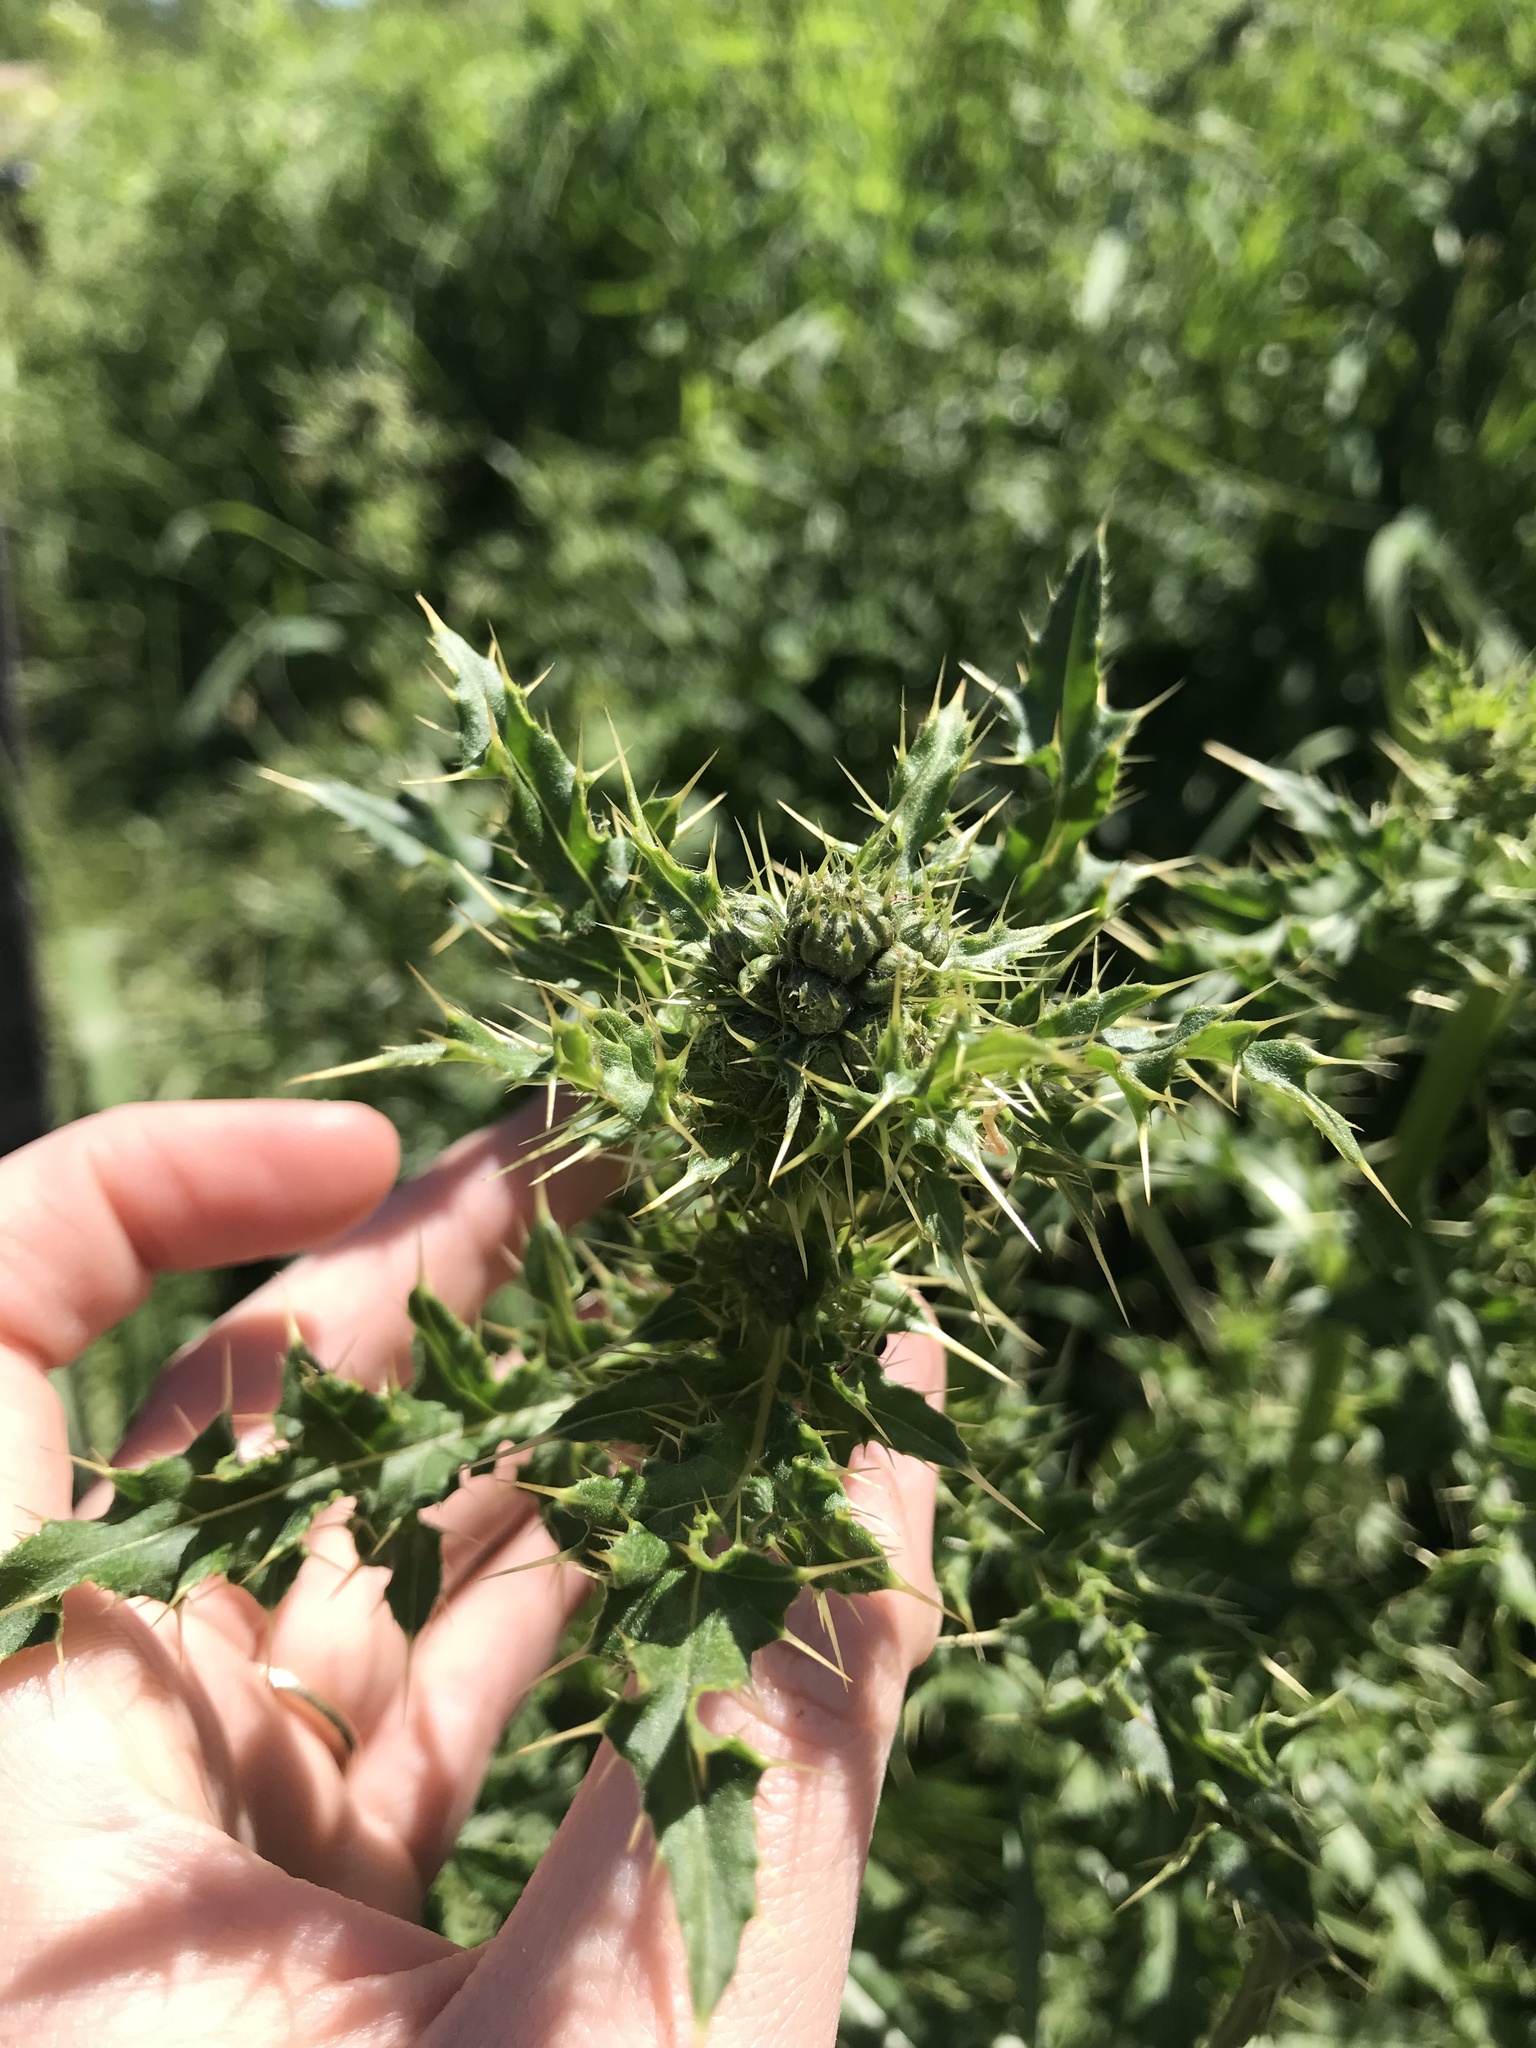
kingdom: Plantae
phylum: Tracheophyta
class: Magnoliopsida
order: Asterales
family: Asteraceae
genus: Cirsium
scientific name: Cirsium arvense
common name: Creeping thistle
